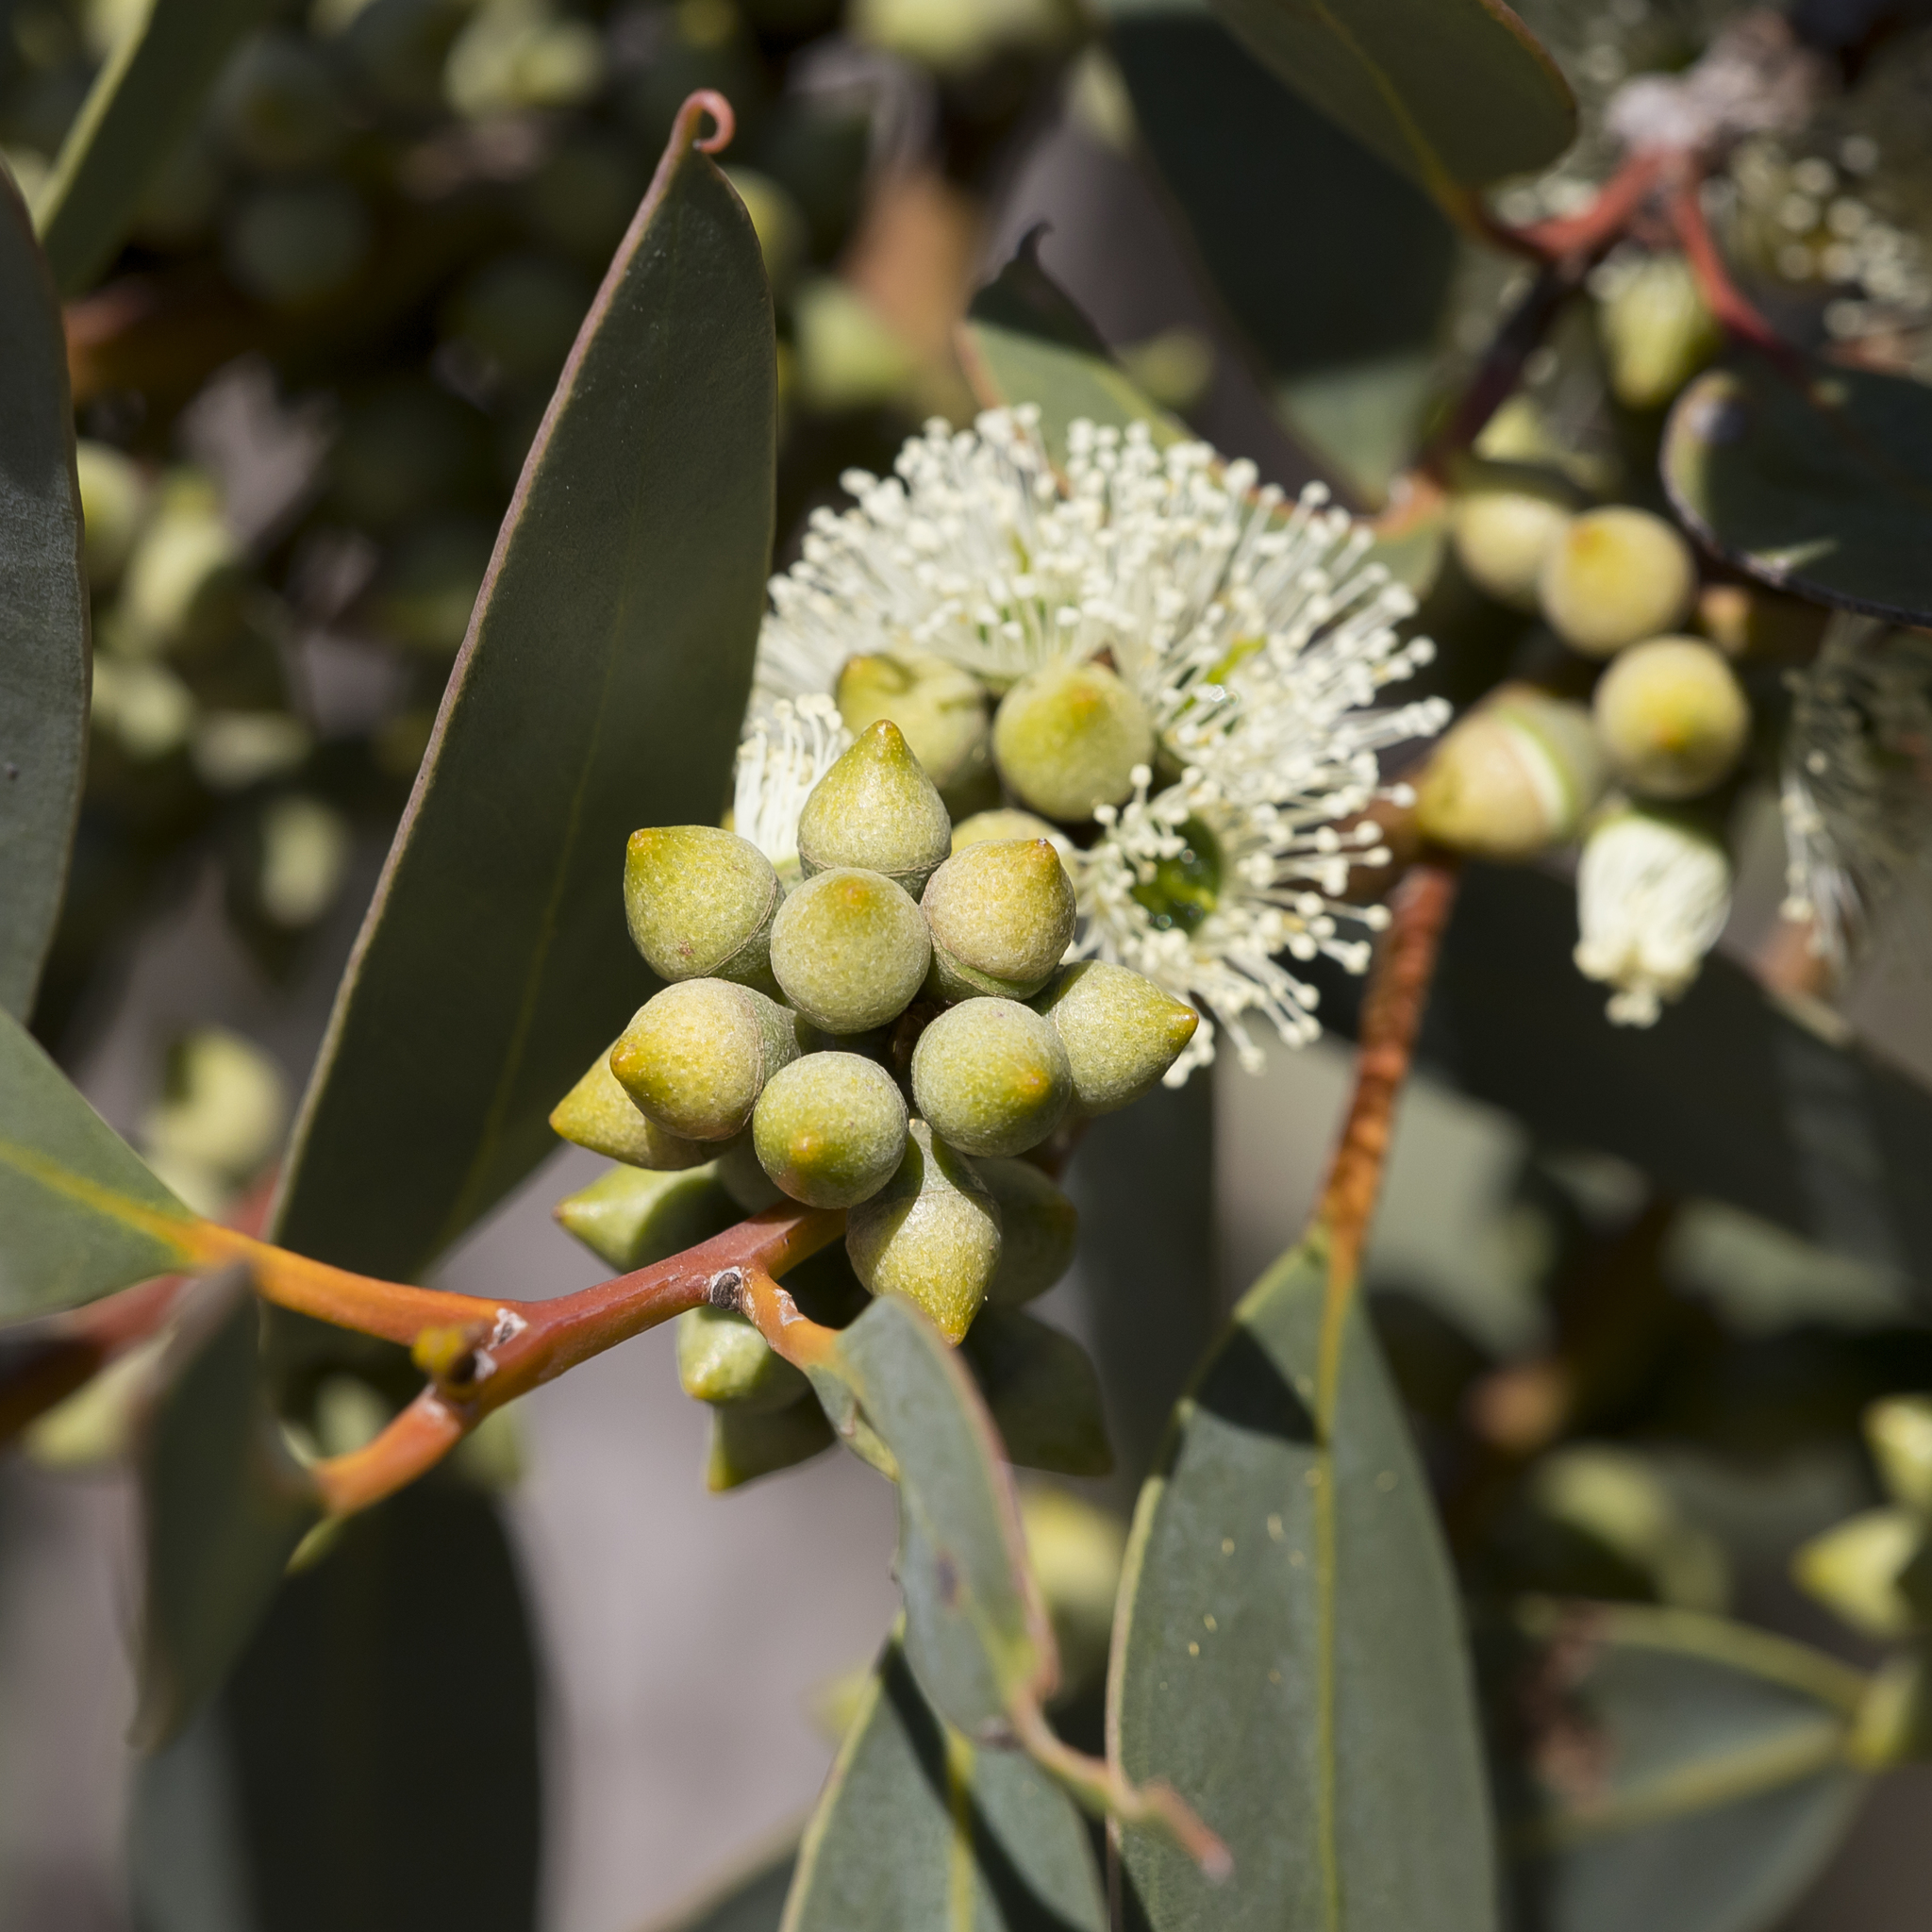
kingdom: Plantae
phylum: Tracheophyta
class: Magnoliopsida
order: Myrtales
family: Myrtaceae
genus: Eucalyptus
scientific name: Eucalyptus diversifolia
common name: Coastal white mallee
